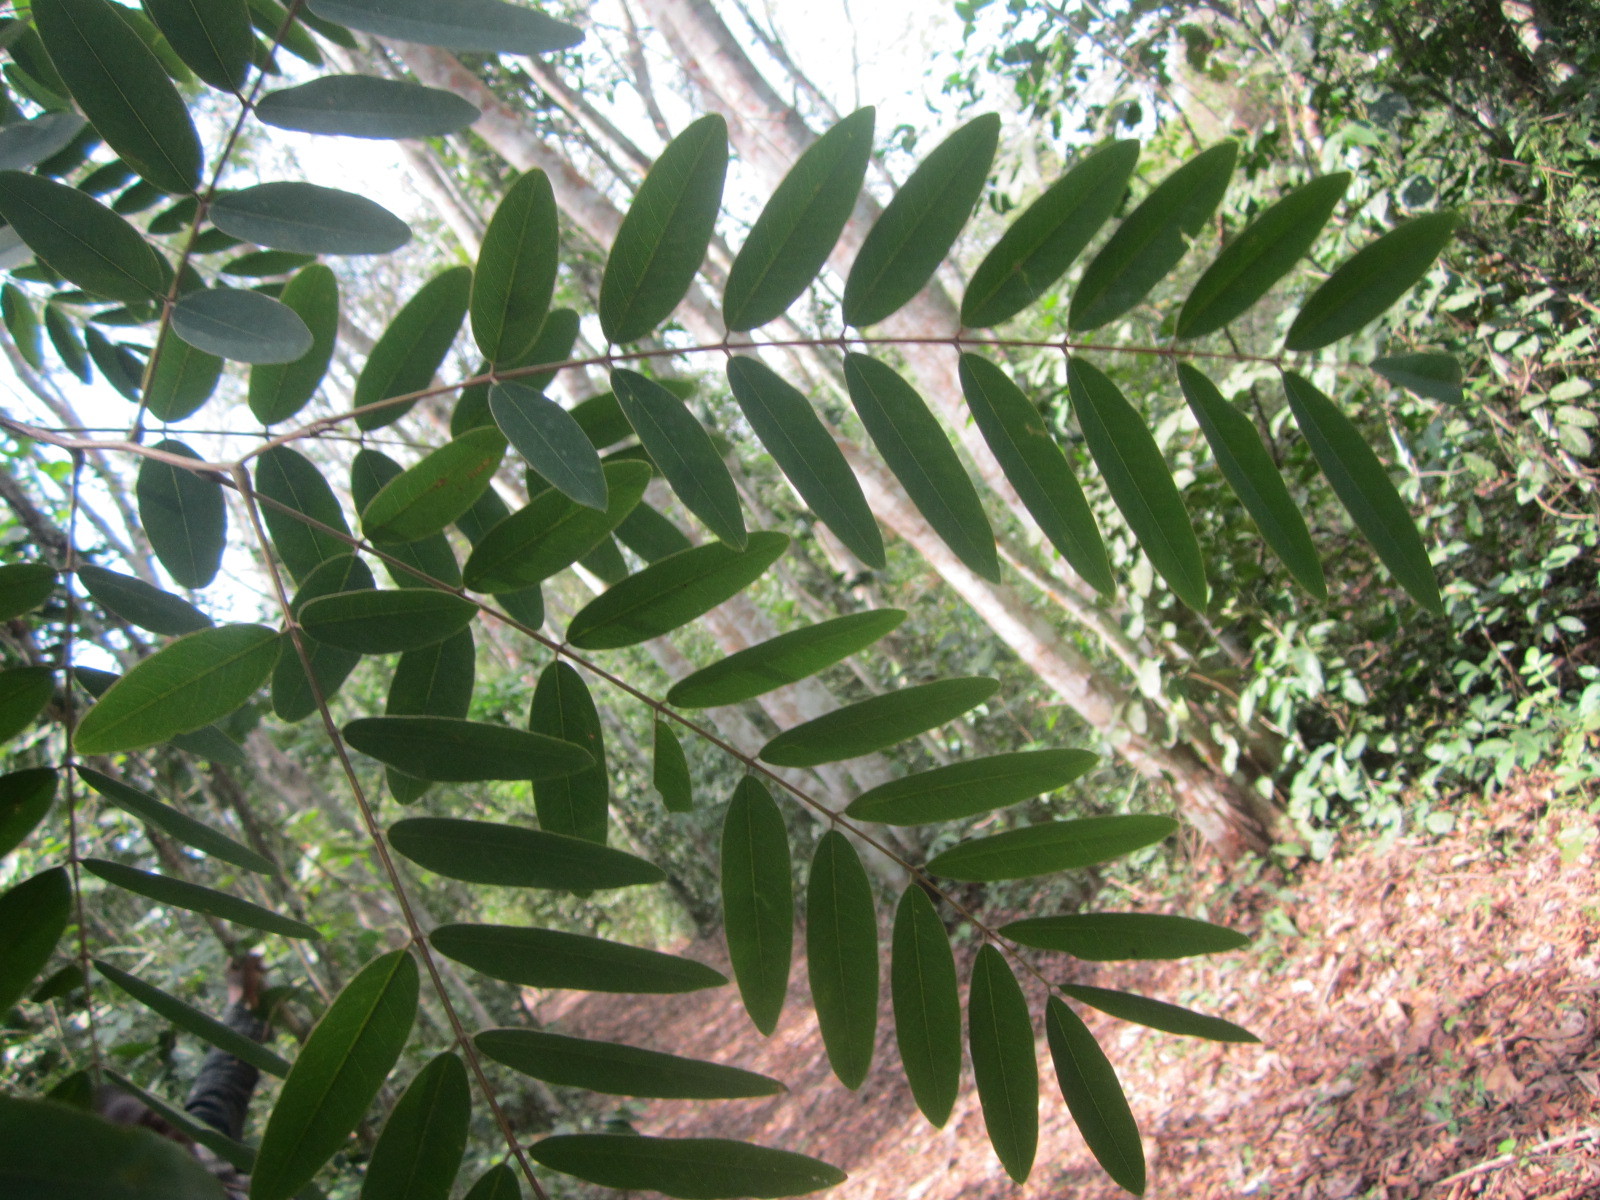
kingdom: Plantae
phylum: Tracheophyta
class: Magnoliopsida
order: Fabales
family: Fabaceae
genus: Senna
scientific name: Senna siamea
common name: Siamese cassia
